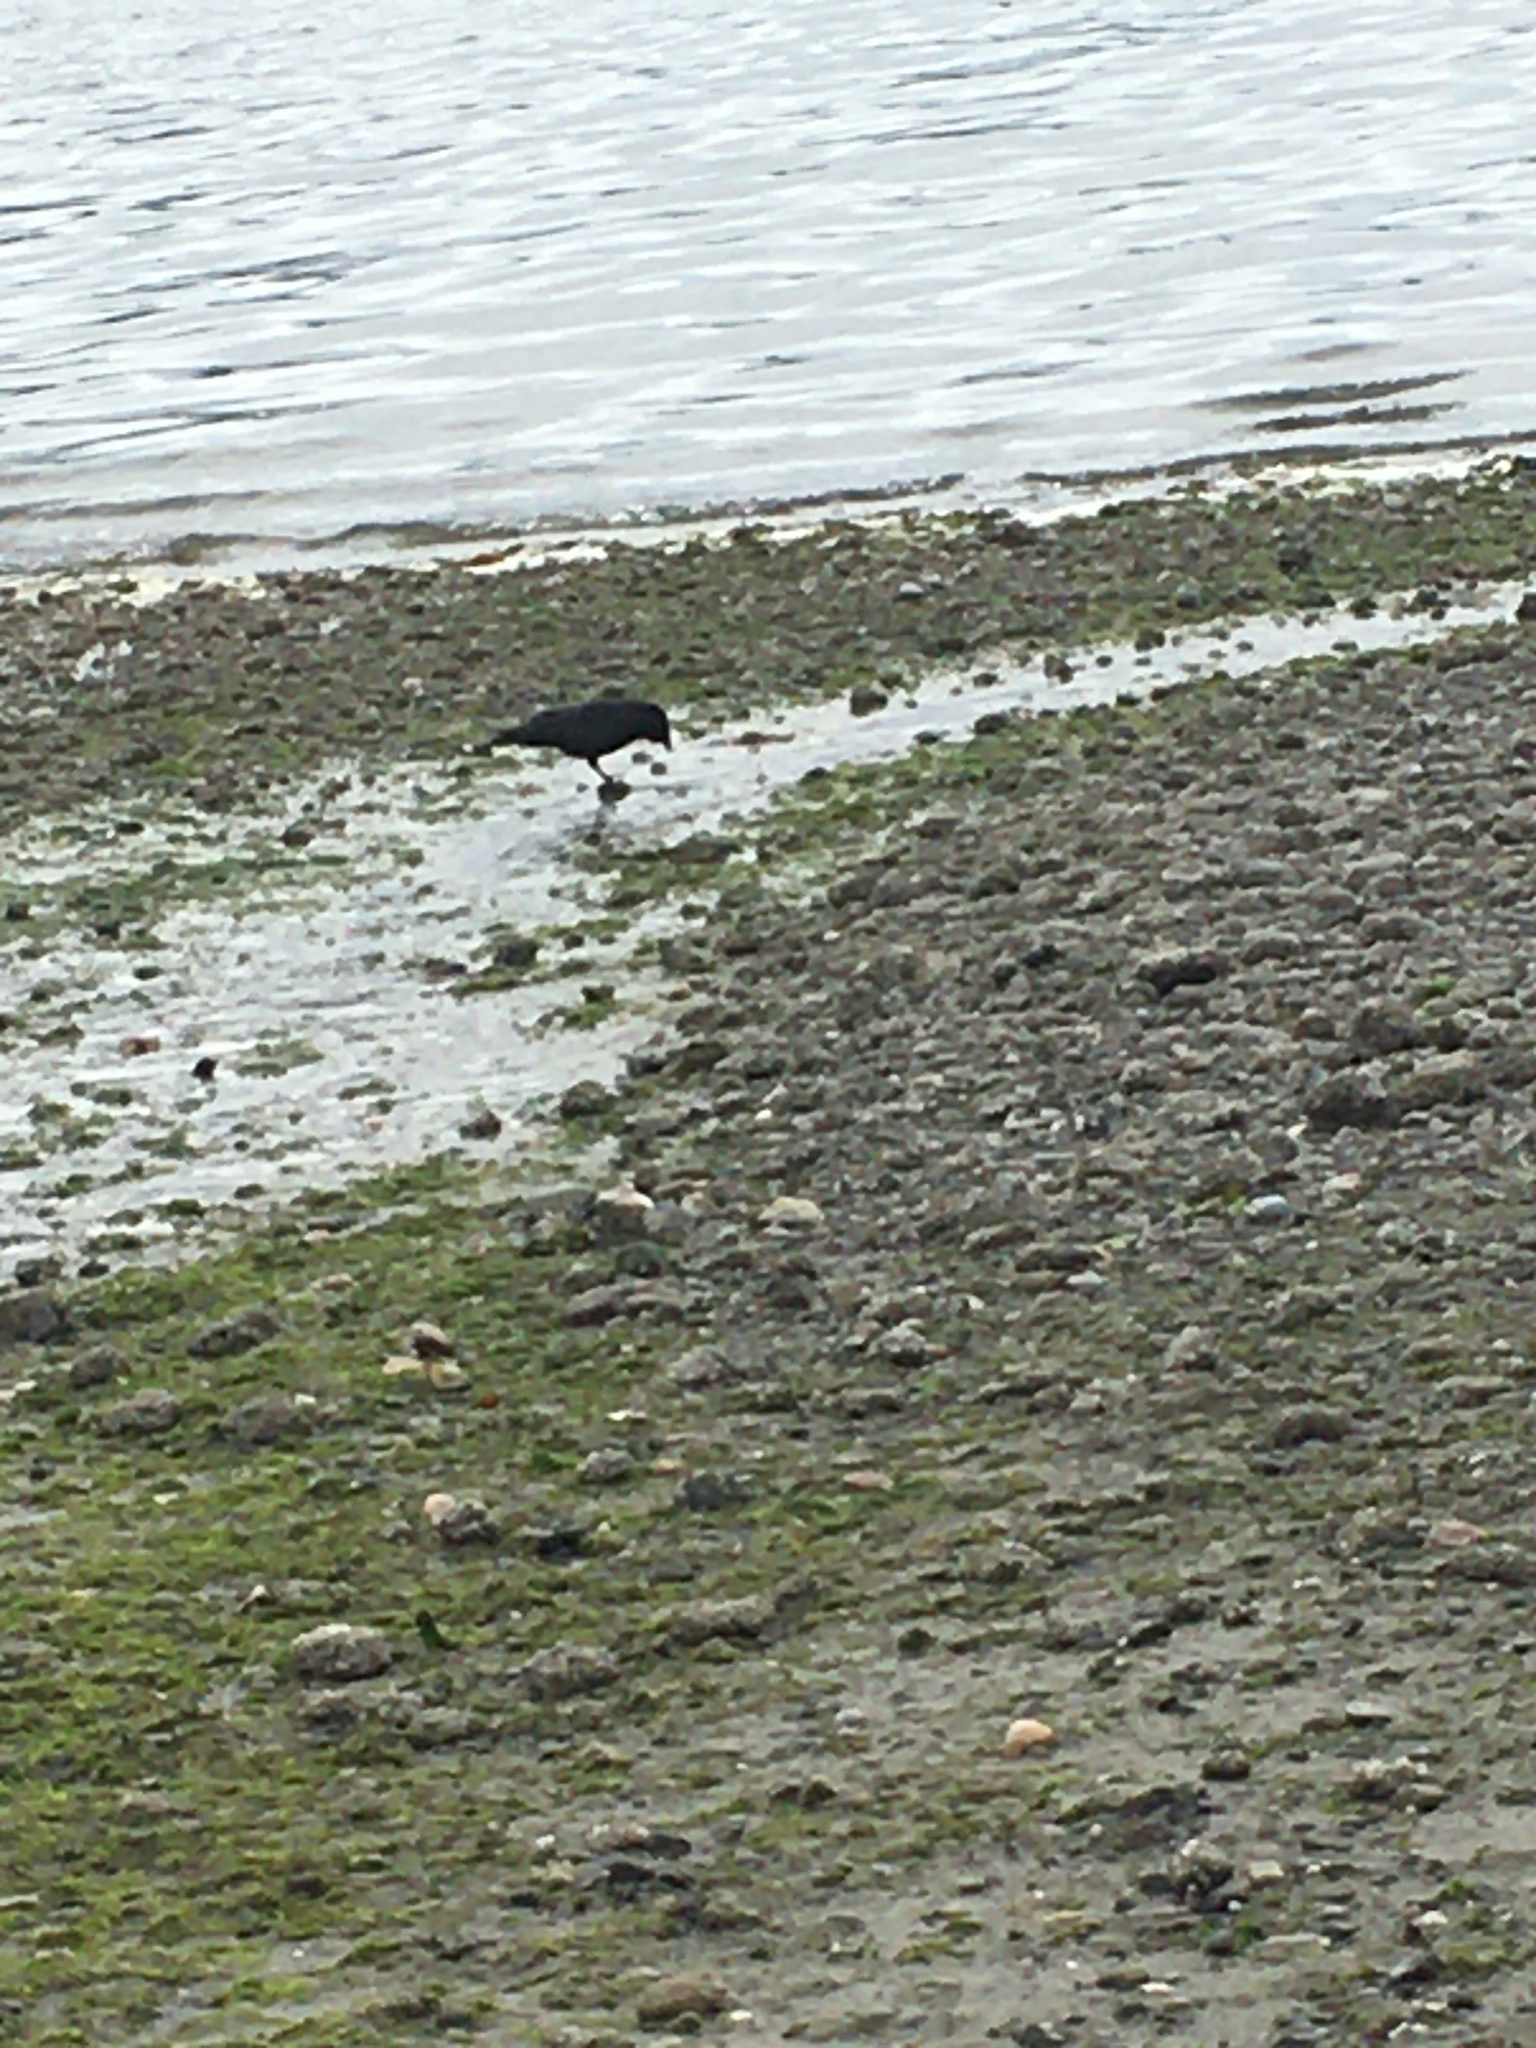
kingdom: Animalia
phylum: Chordata
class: Aves
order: Passeriformes
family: Corvidae
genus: Corvus
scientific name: Corvus brachyrhynchos
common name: American crow
